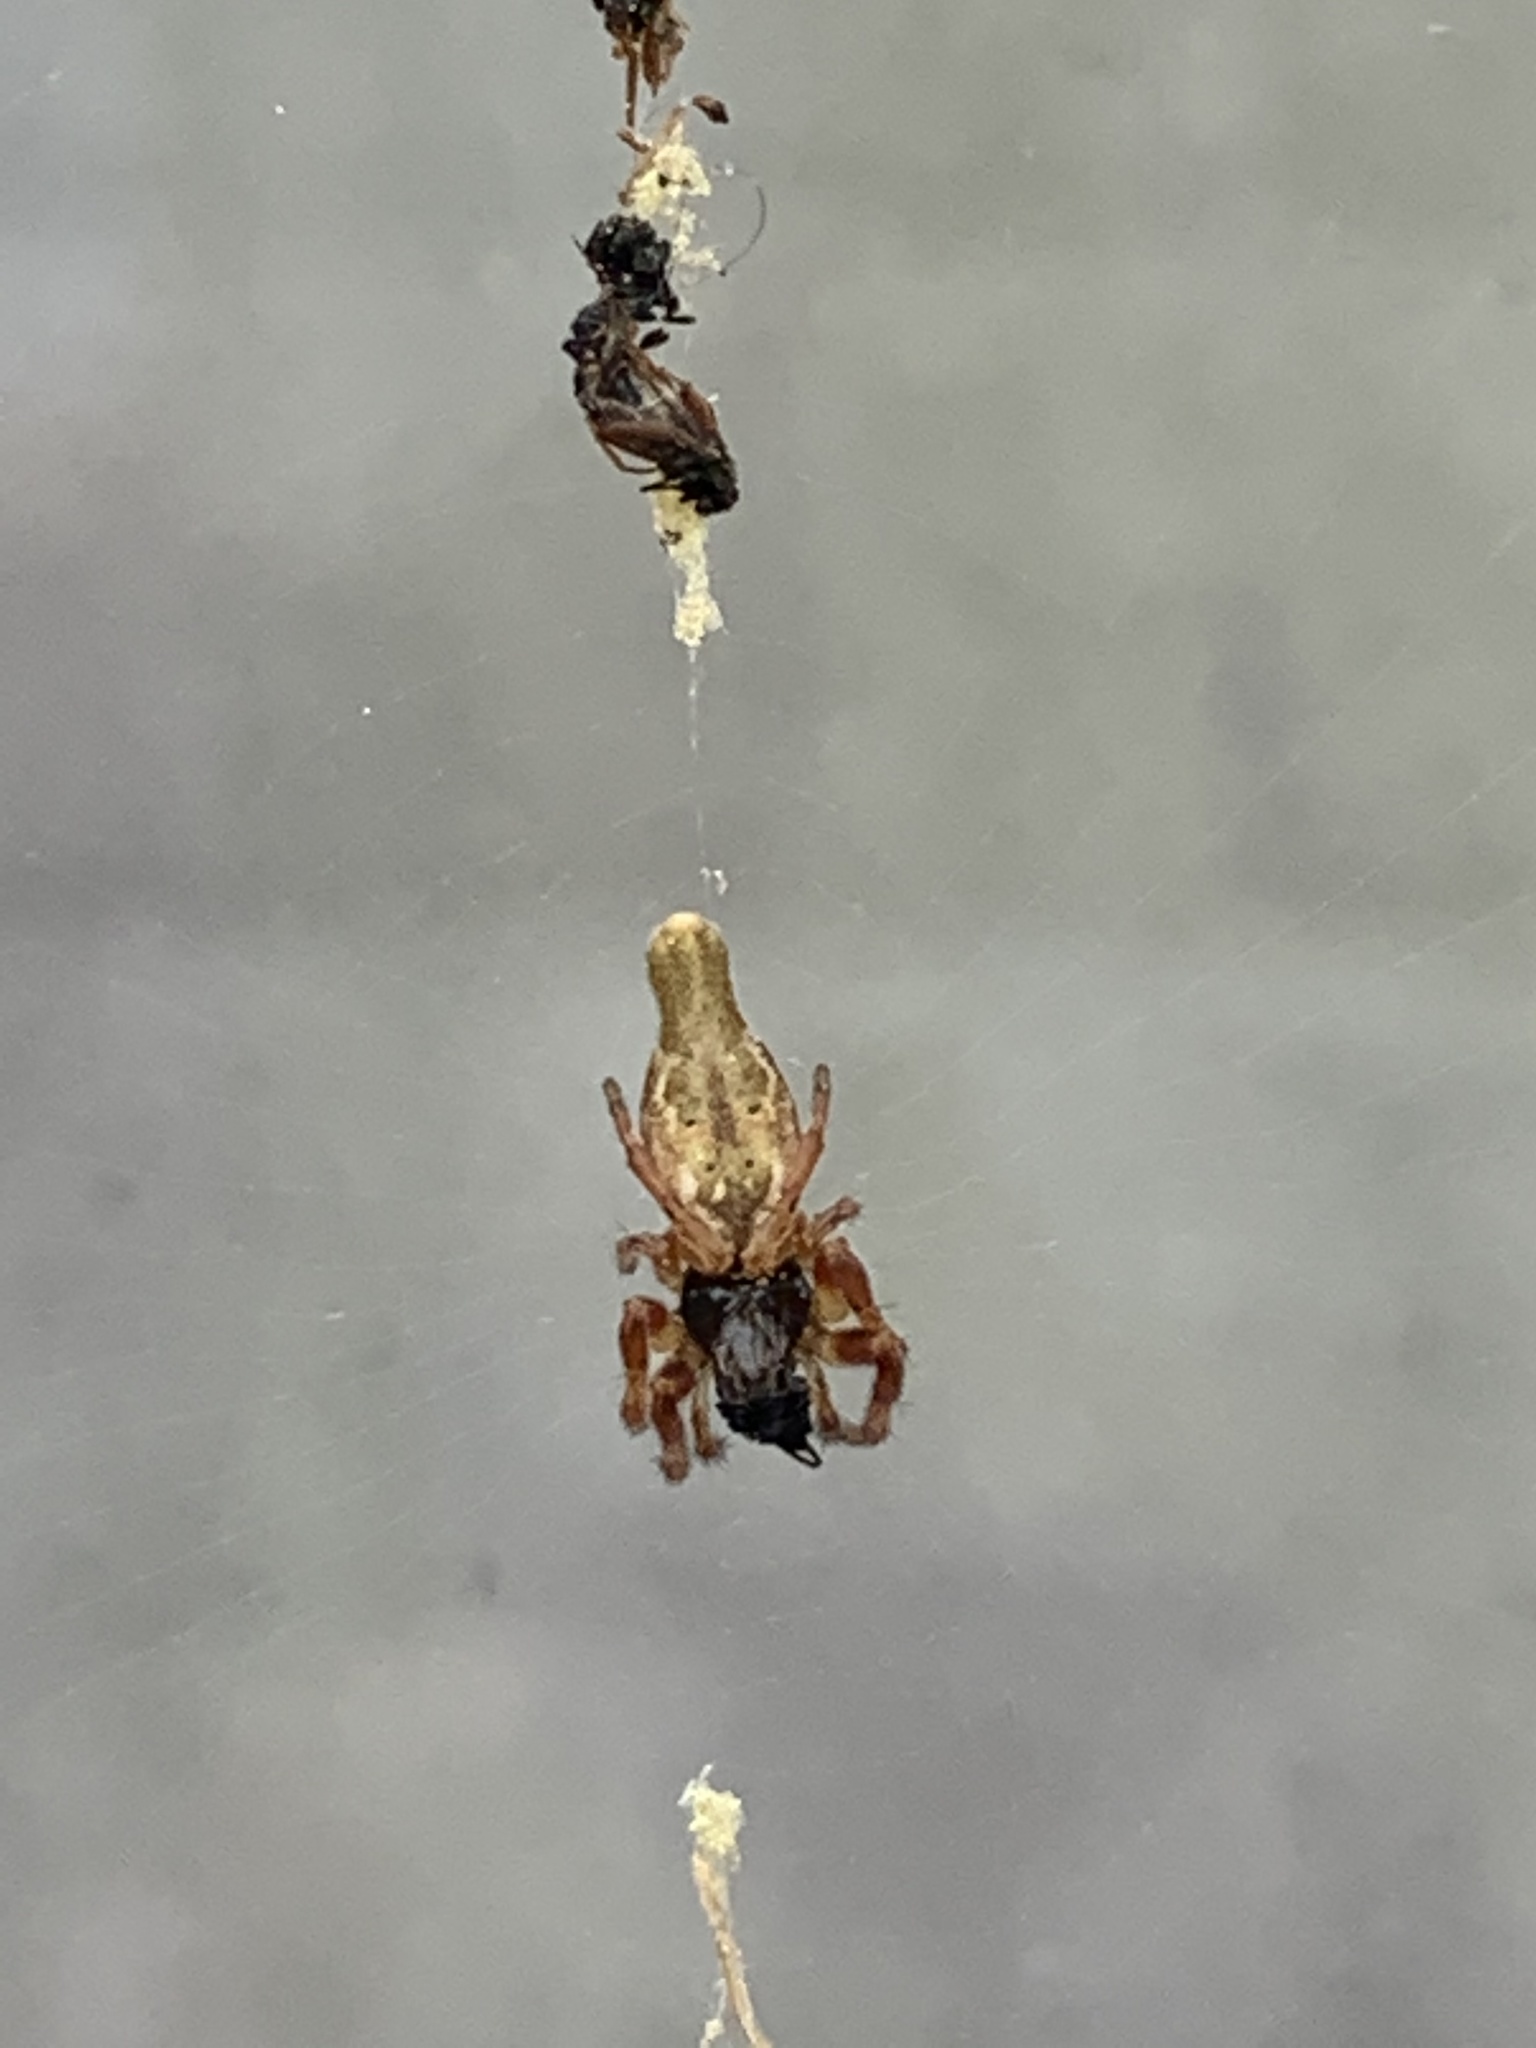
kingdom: Animalia
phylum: Arthropoda
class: Arachnida
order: Araneae
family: Araneidae
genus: Cyclosa
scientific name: Cyclosa
